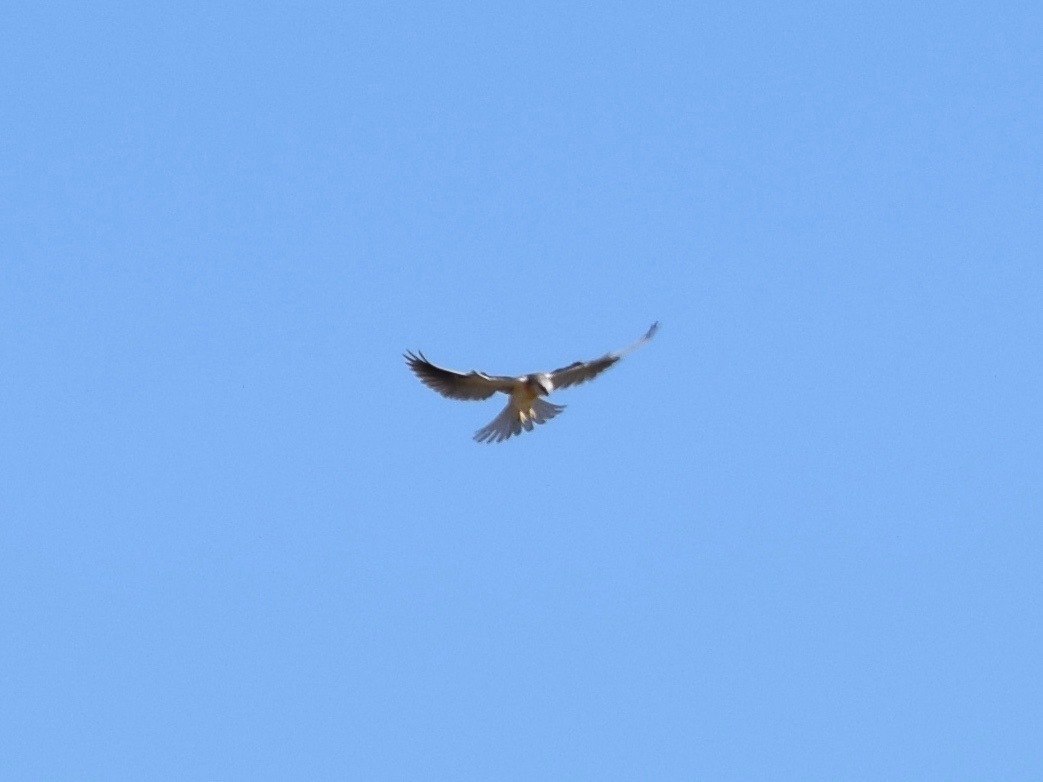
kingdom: Animalia
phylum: Chordata
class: Aves
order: Accipitriformes
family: Accipitridae
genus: Elanus
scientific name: Elanus leucurus
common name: White-tailed kite
